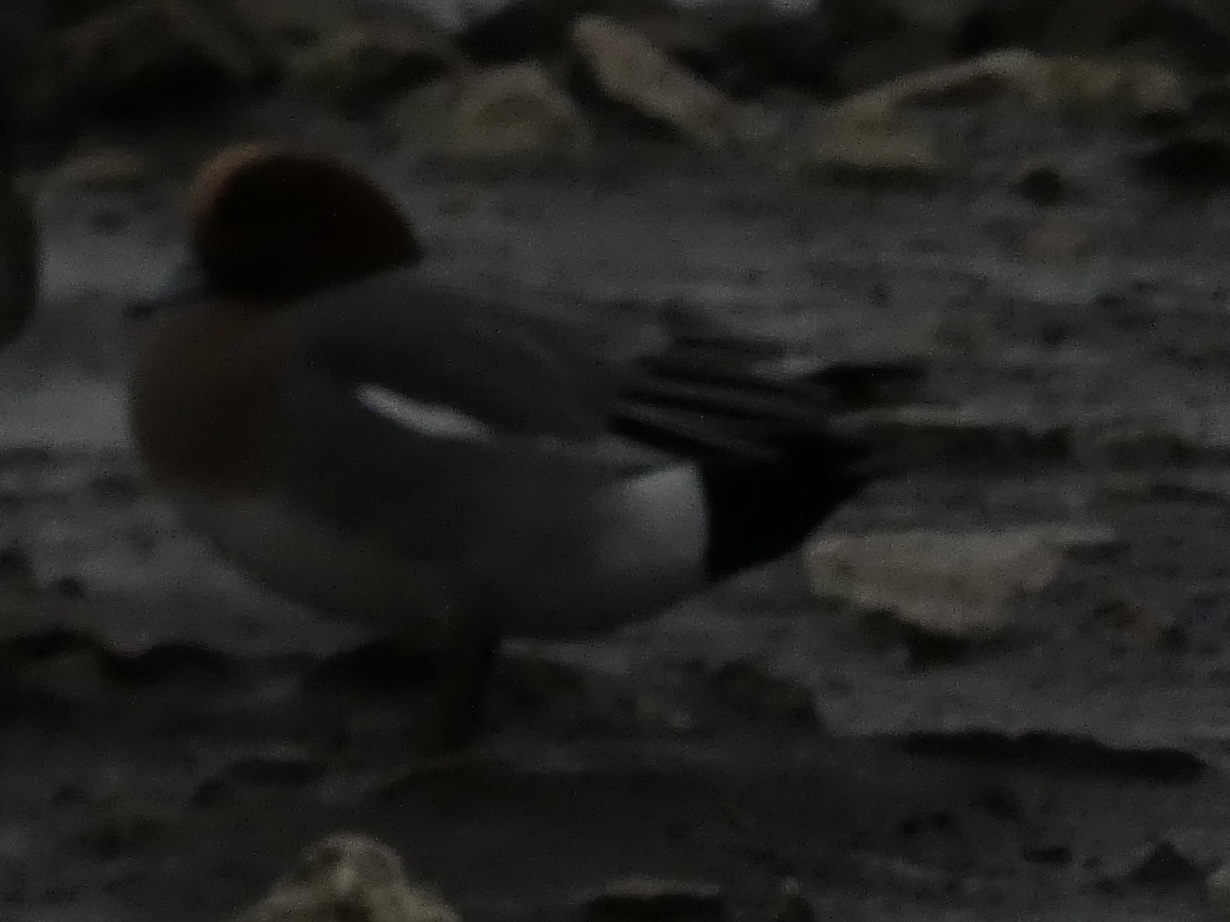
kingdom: Animalia
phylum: Chordata
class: Aves
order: Anseriformes
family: Anatidae
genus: Mareca
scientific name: Mareca penelope
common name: Eurasian wigeon
